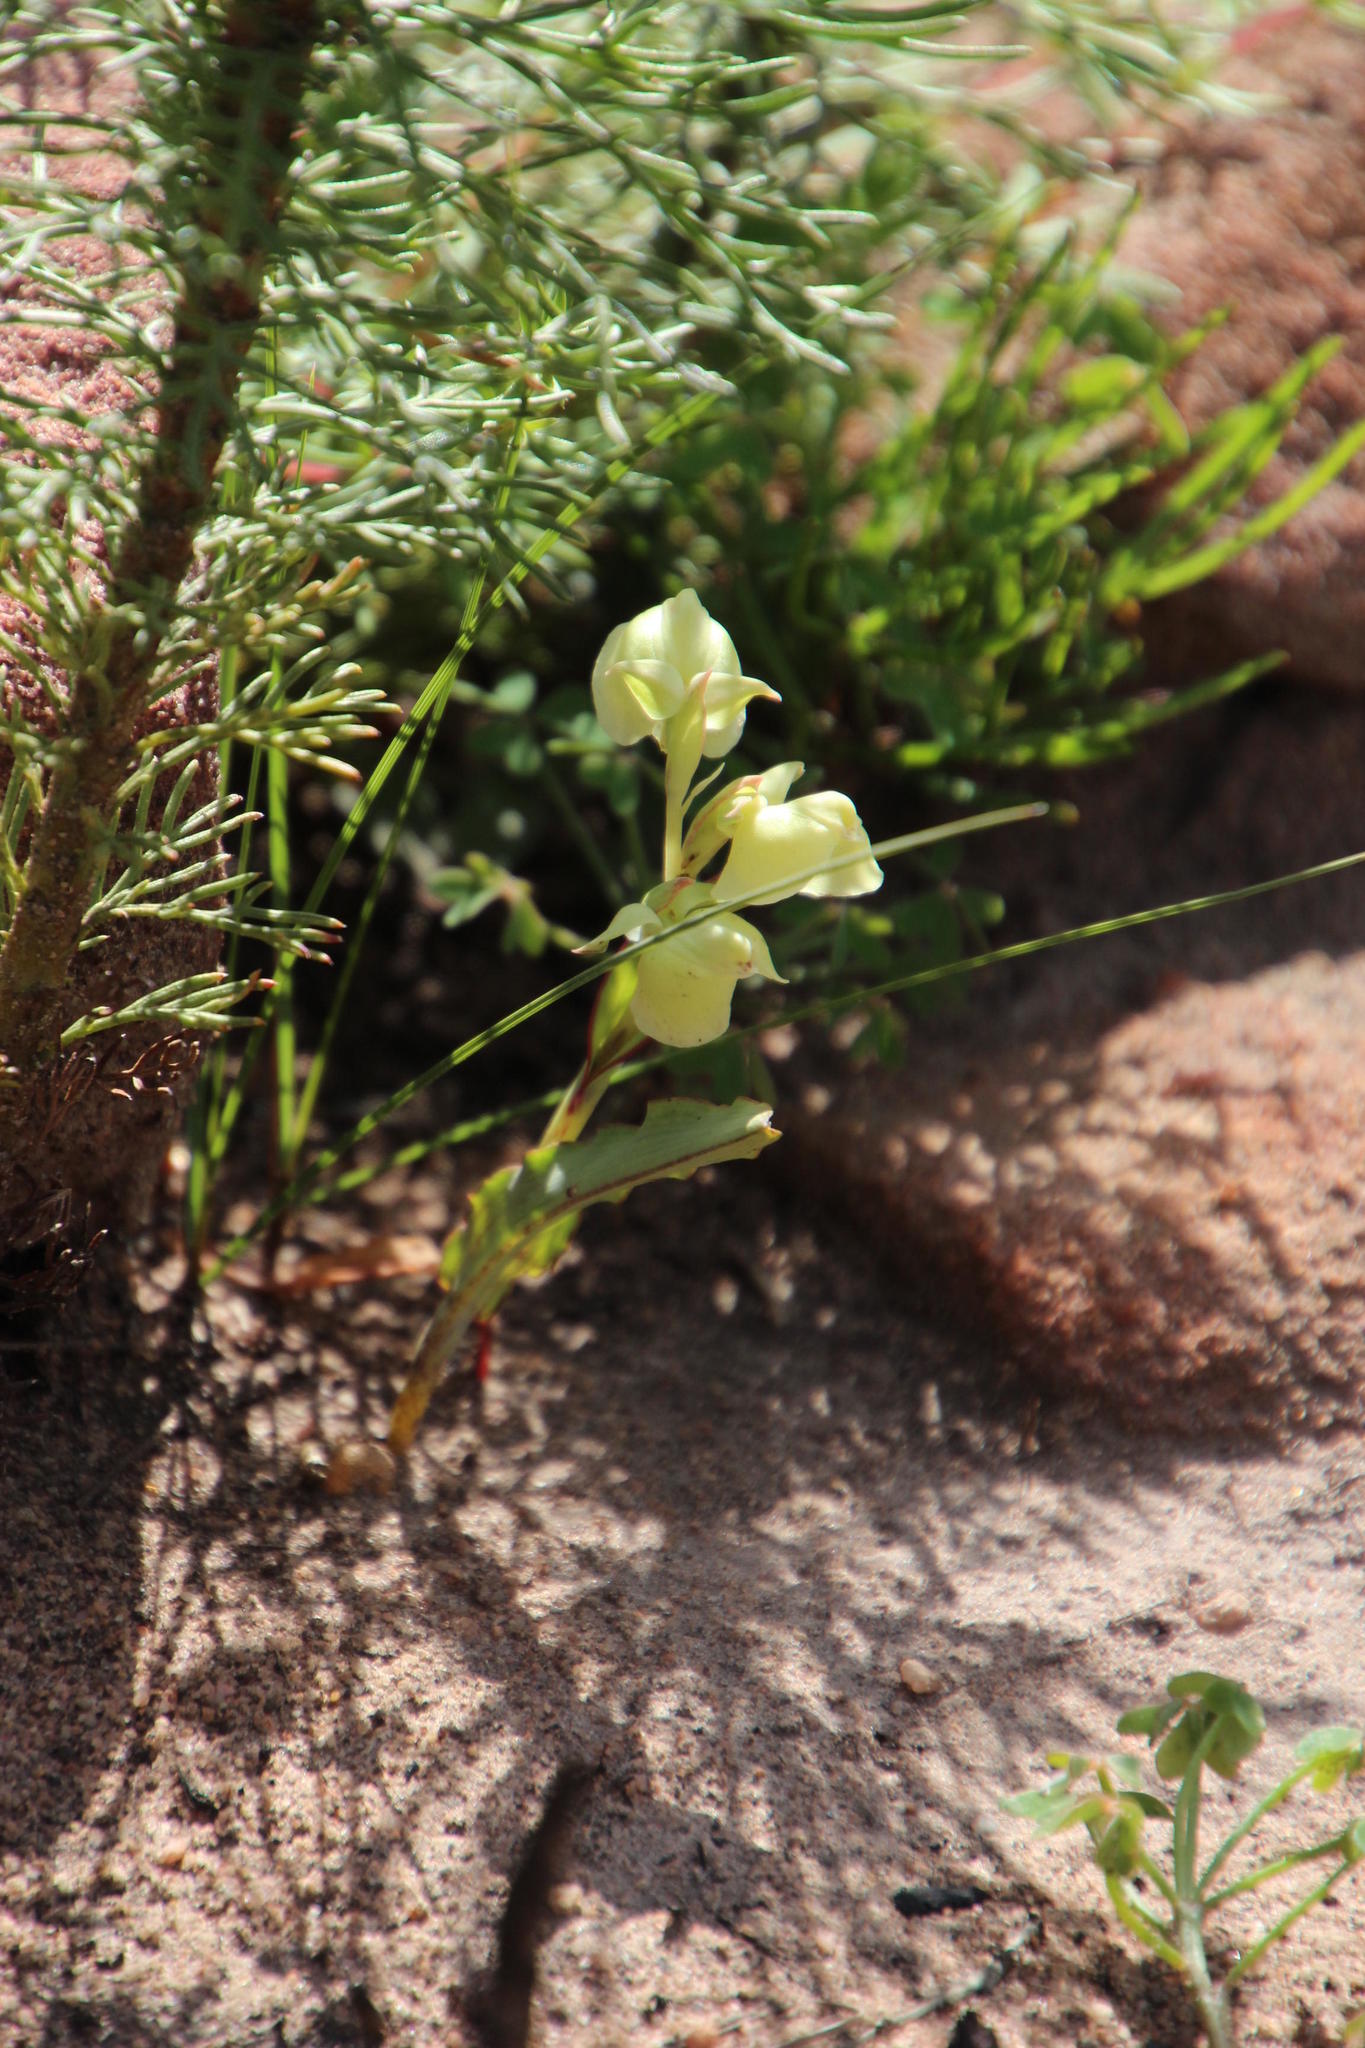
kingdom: Plantae
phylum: Tracheophyta
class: Liliopsida
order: Asparagales
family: Orchidaceae
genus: Pterygodium
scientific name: Pterygodium catholicum
